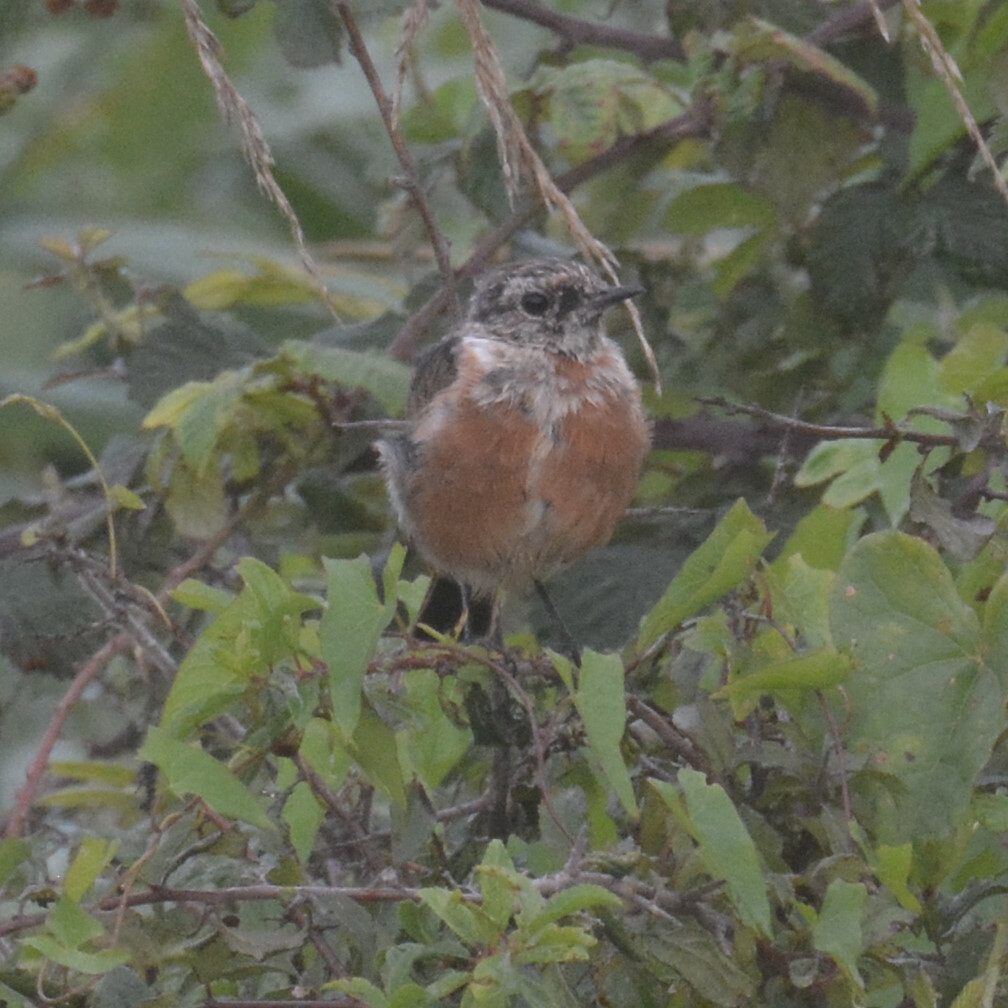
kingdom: Animalia
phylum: Chordata
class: Aves
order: Passeriformes
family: Muscicapidae
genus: Saxicola
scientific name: Saxicola rubicola
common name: European stonechat
